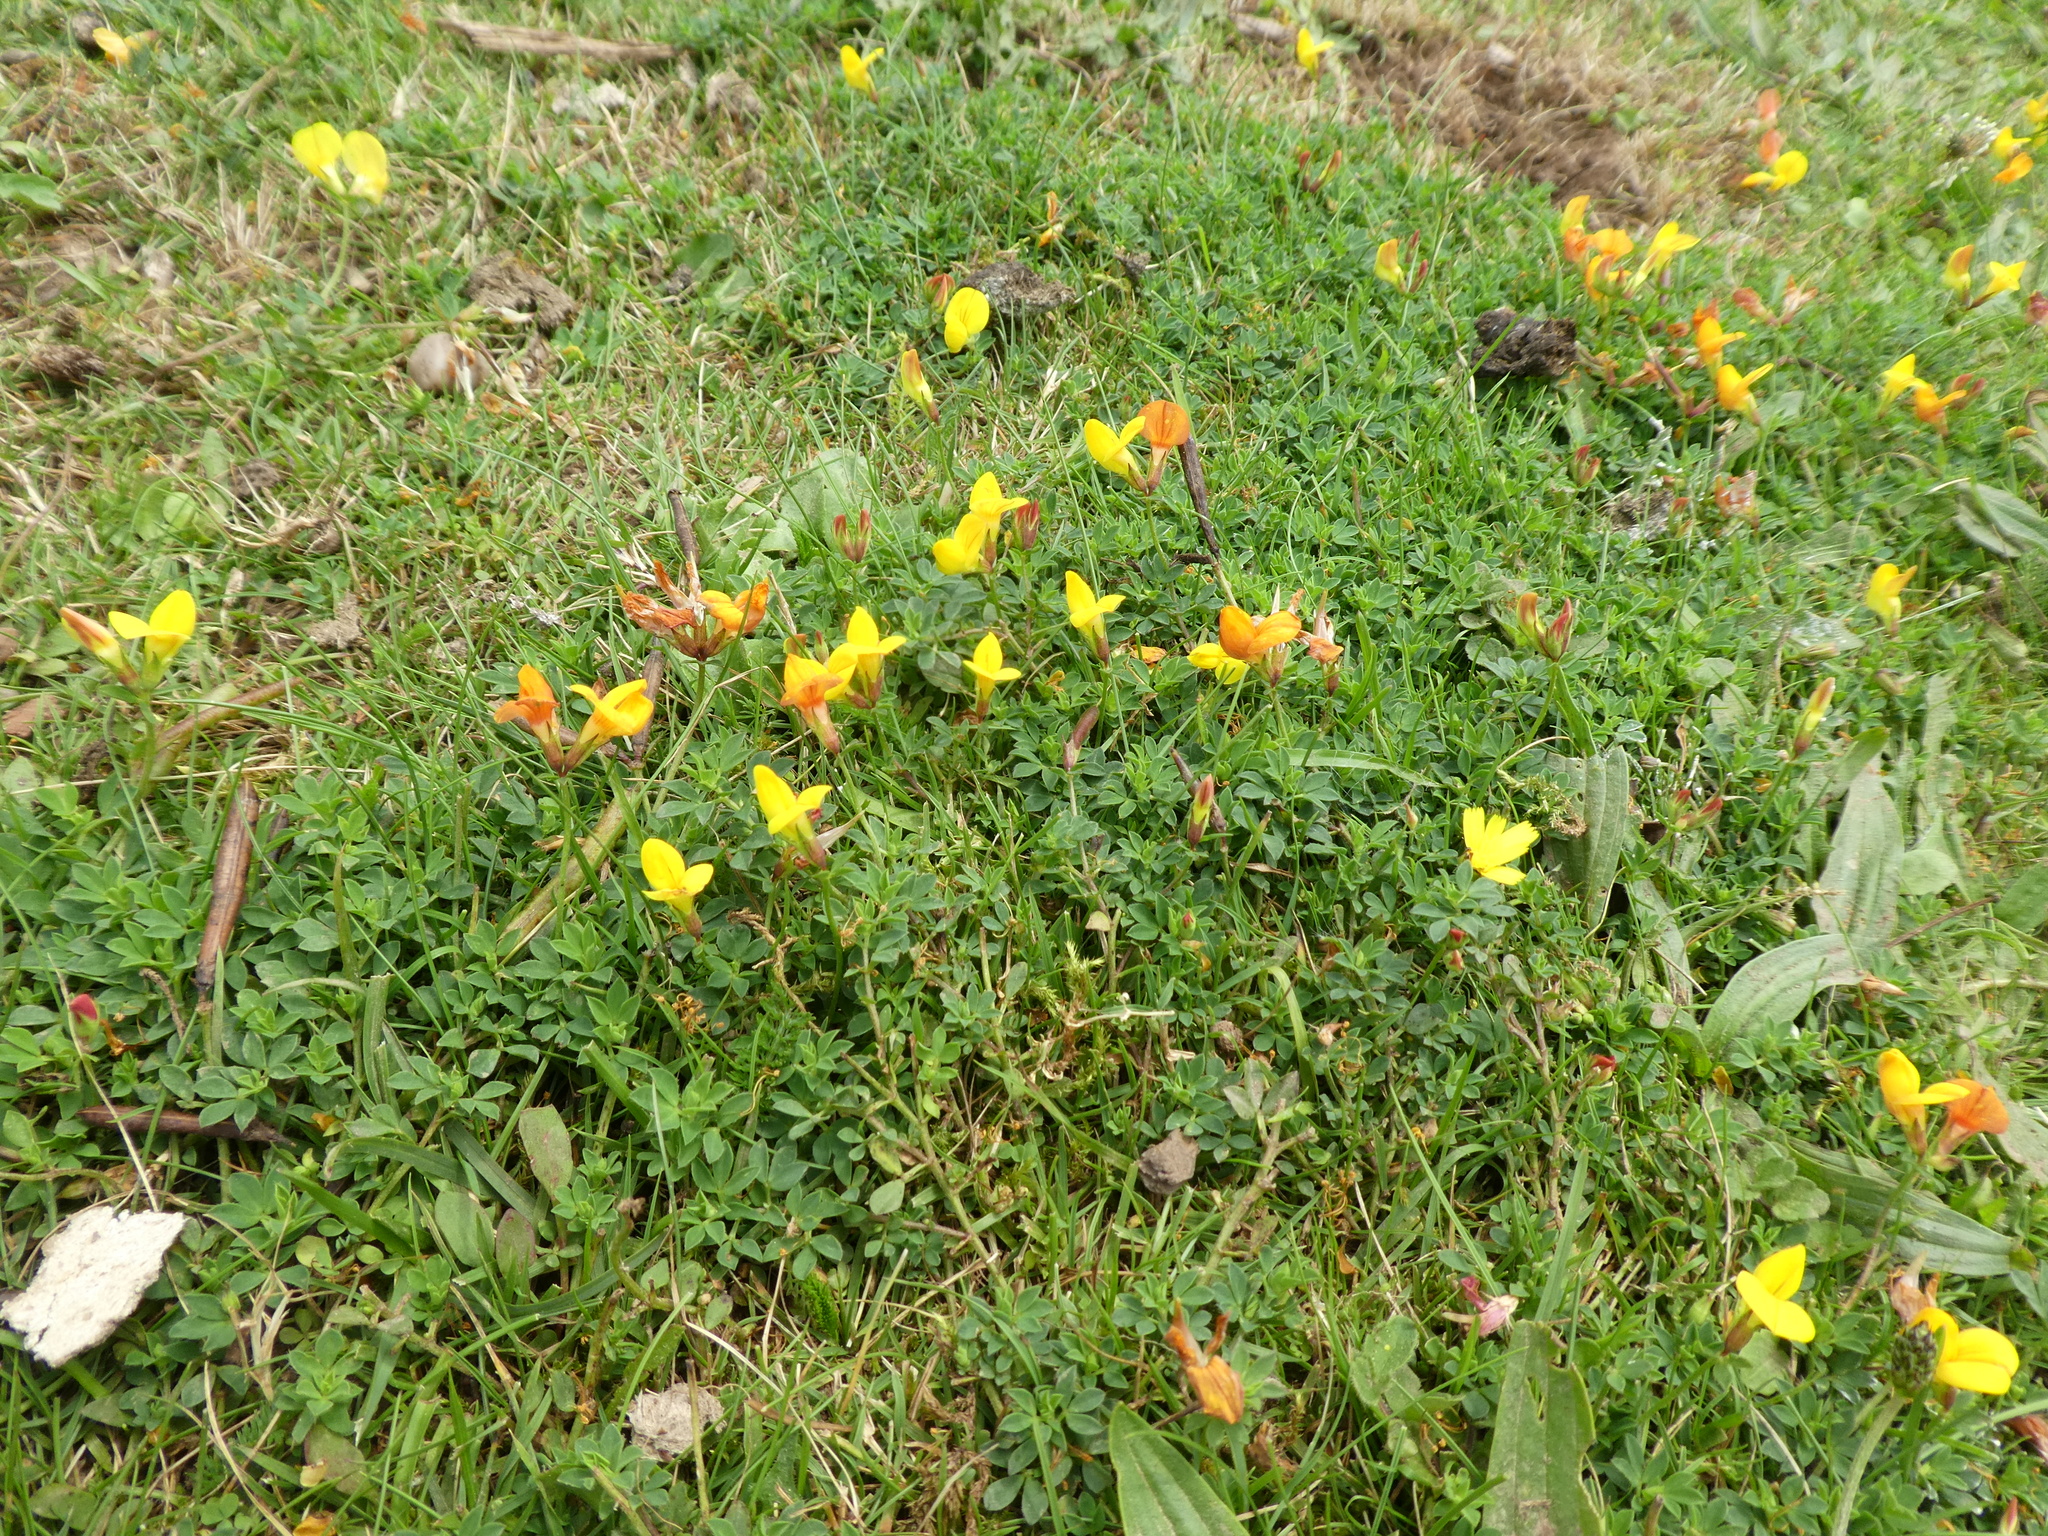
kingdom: Plantae
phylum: Tracheophyta
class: Magnoliopsida
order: Fabales
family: Fabaceae
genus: Lotus
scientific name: Lotus corniculatus
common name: Common bird's-foot-trefoil
